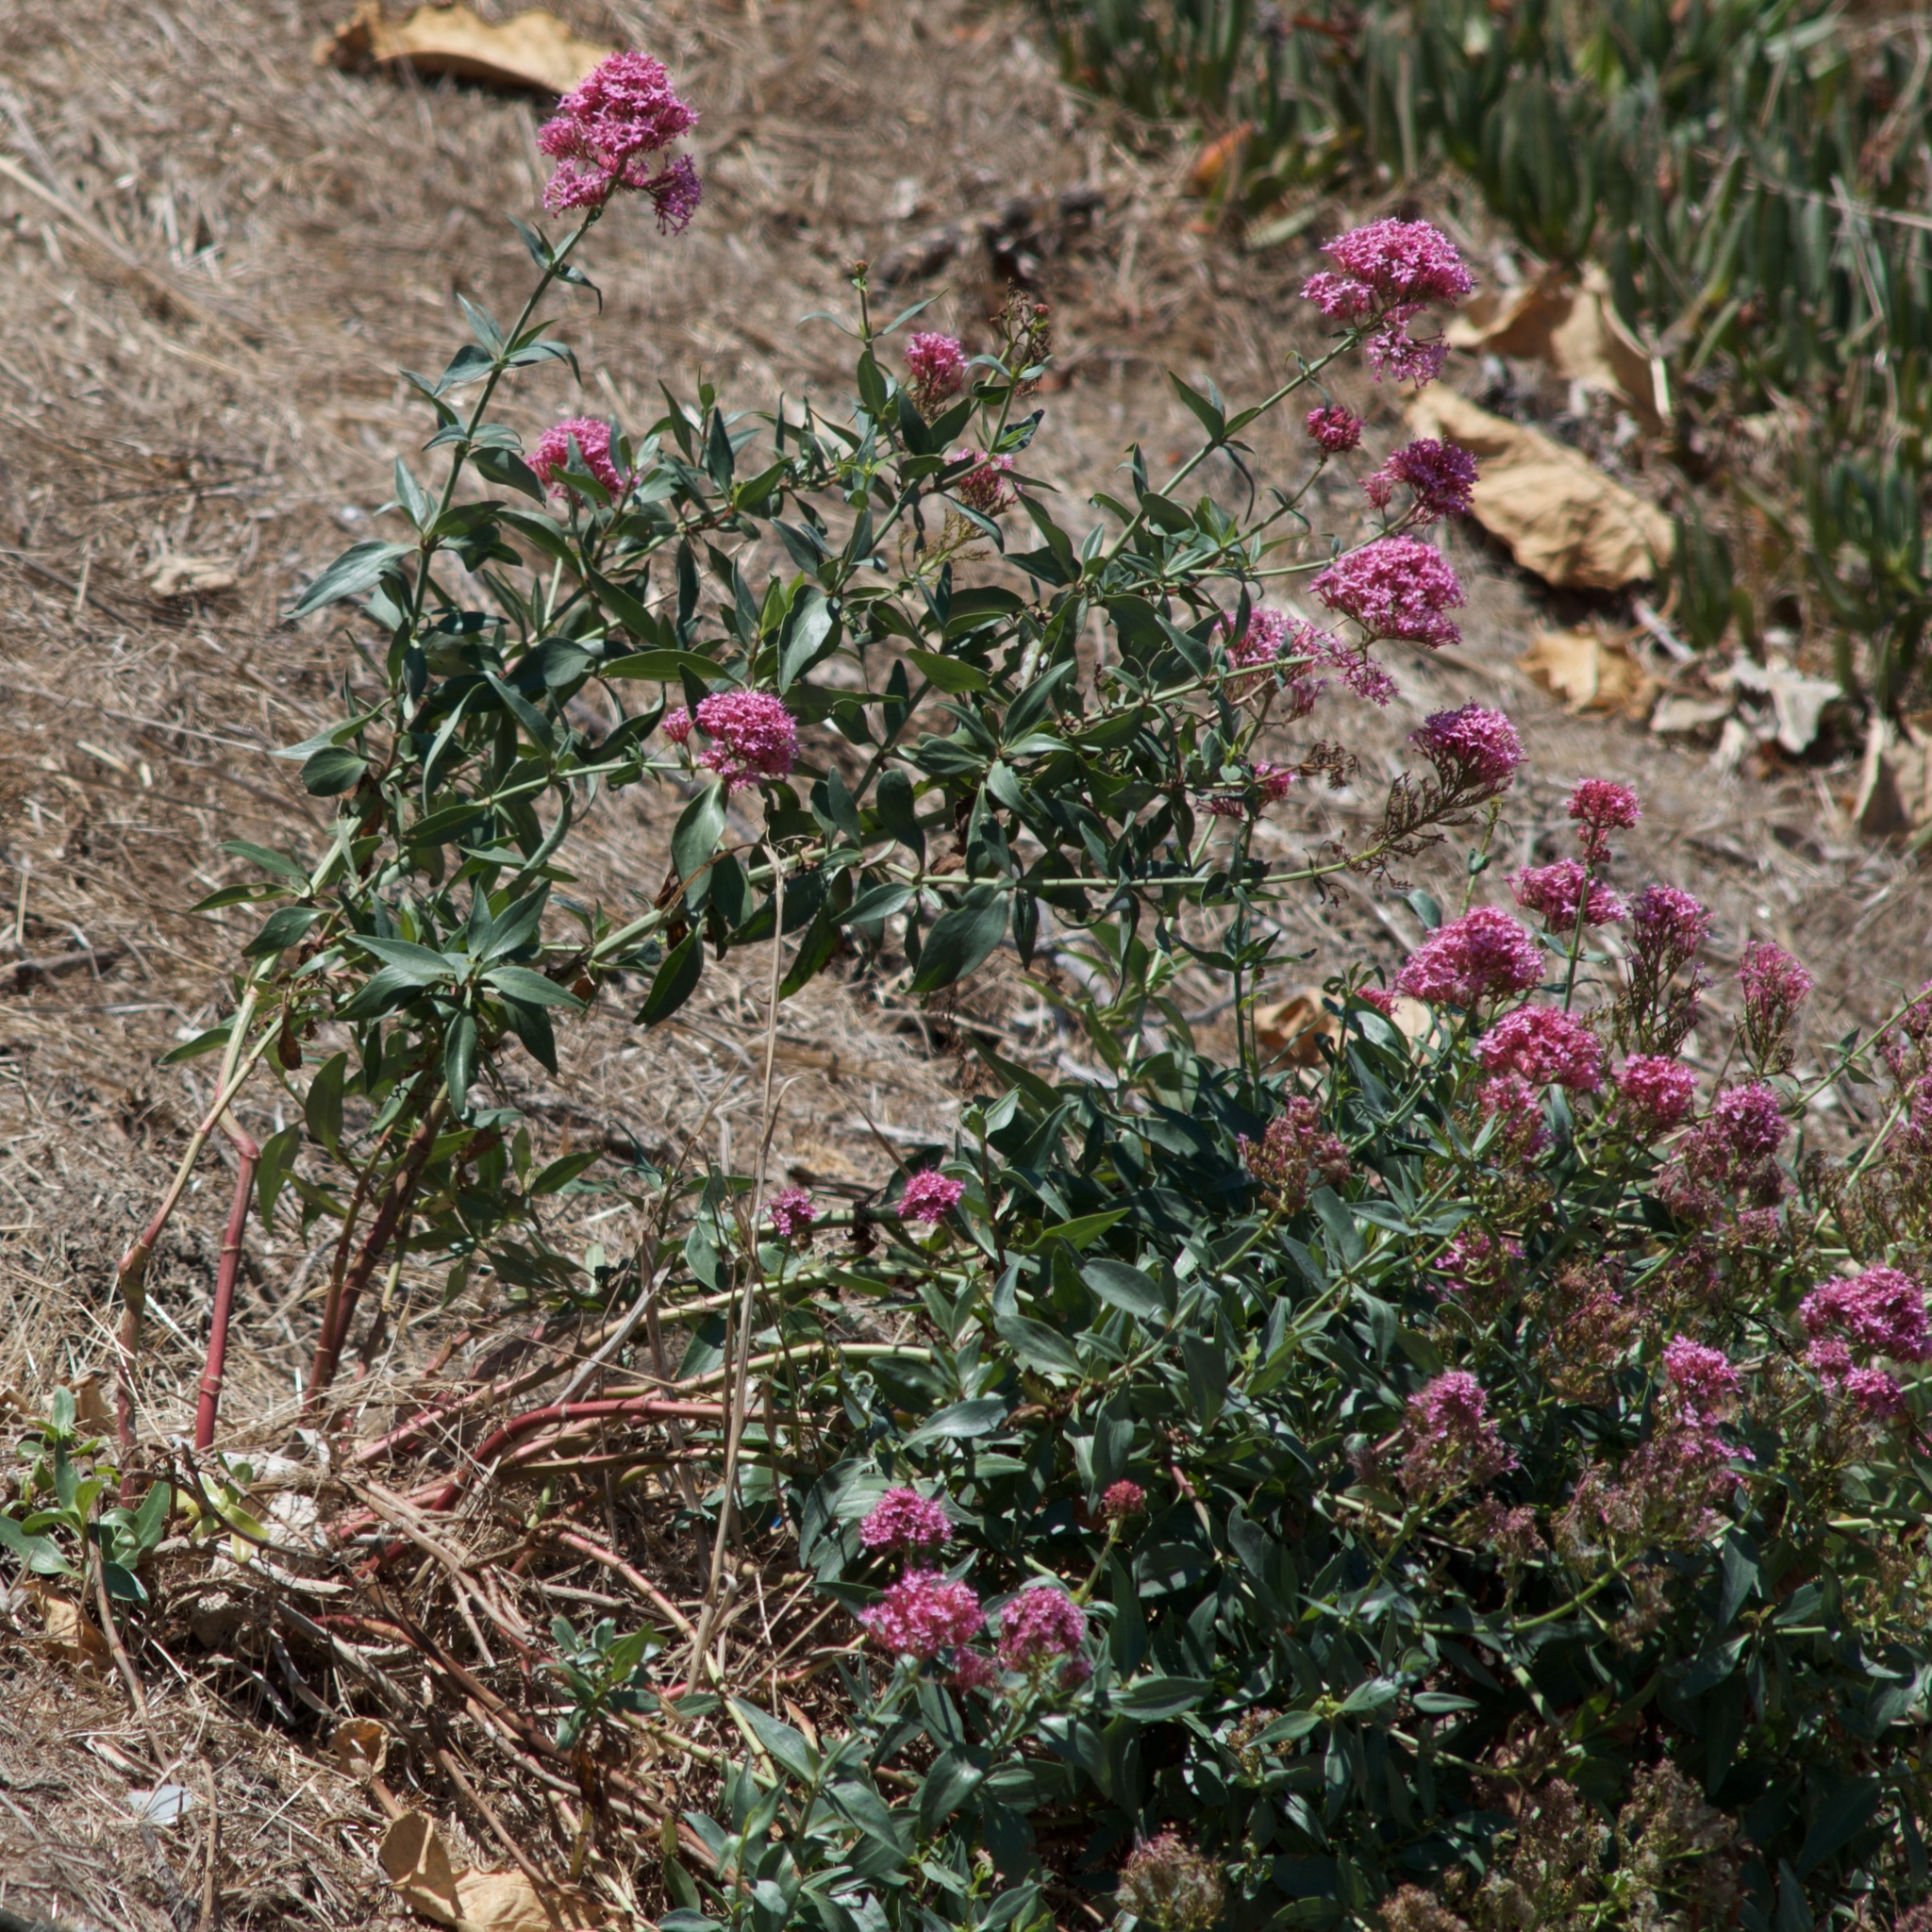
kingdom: Plantae
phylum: Tracheophyta
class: Magnoliopsida
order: Dipsacales
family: Caprifoliaceae
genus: Centranthus
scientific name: Centranthus ruber
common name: Red valerian
